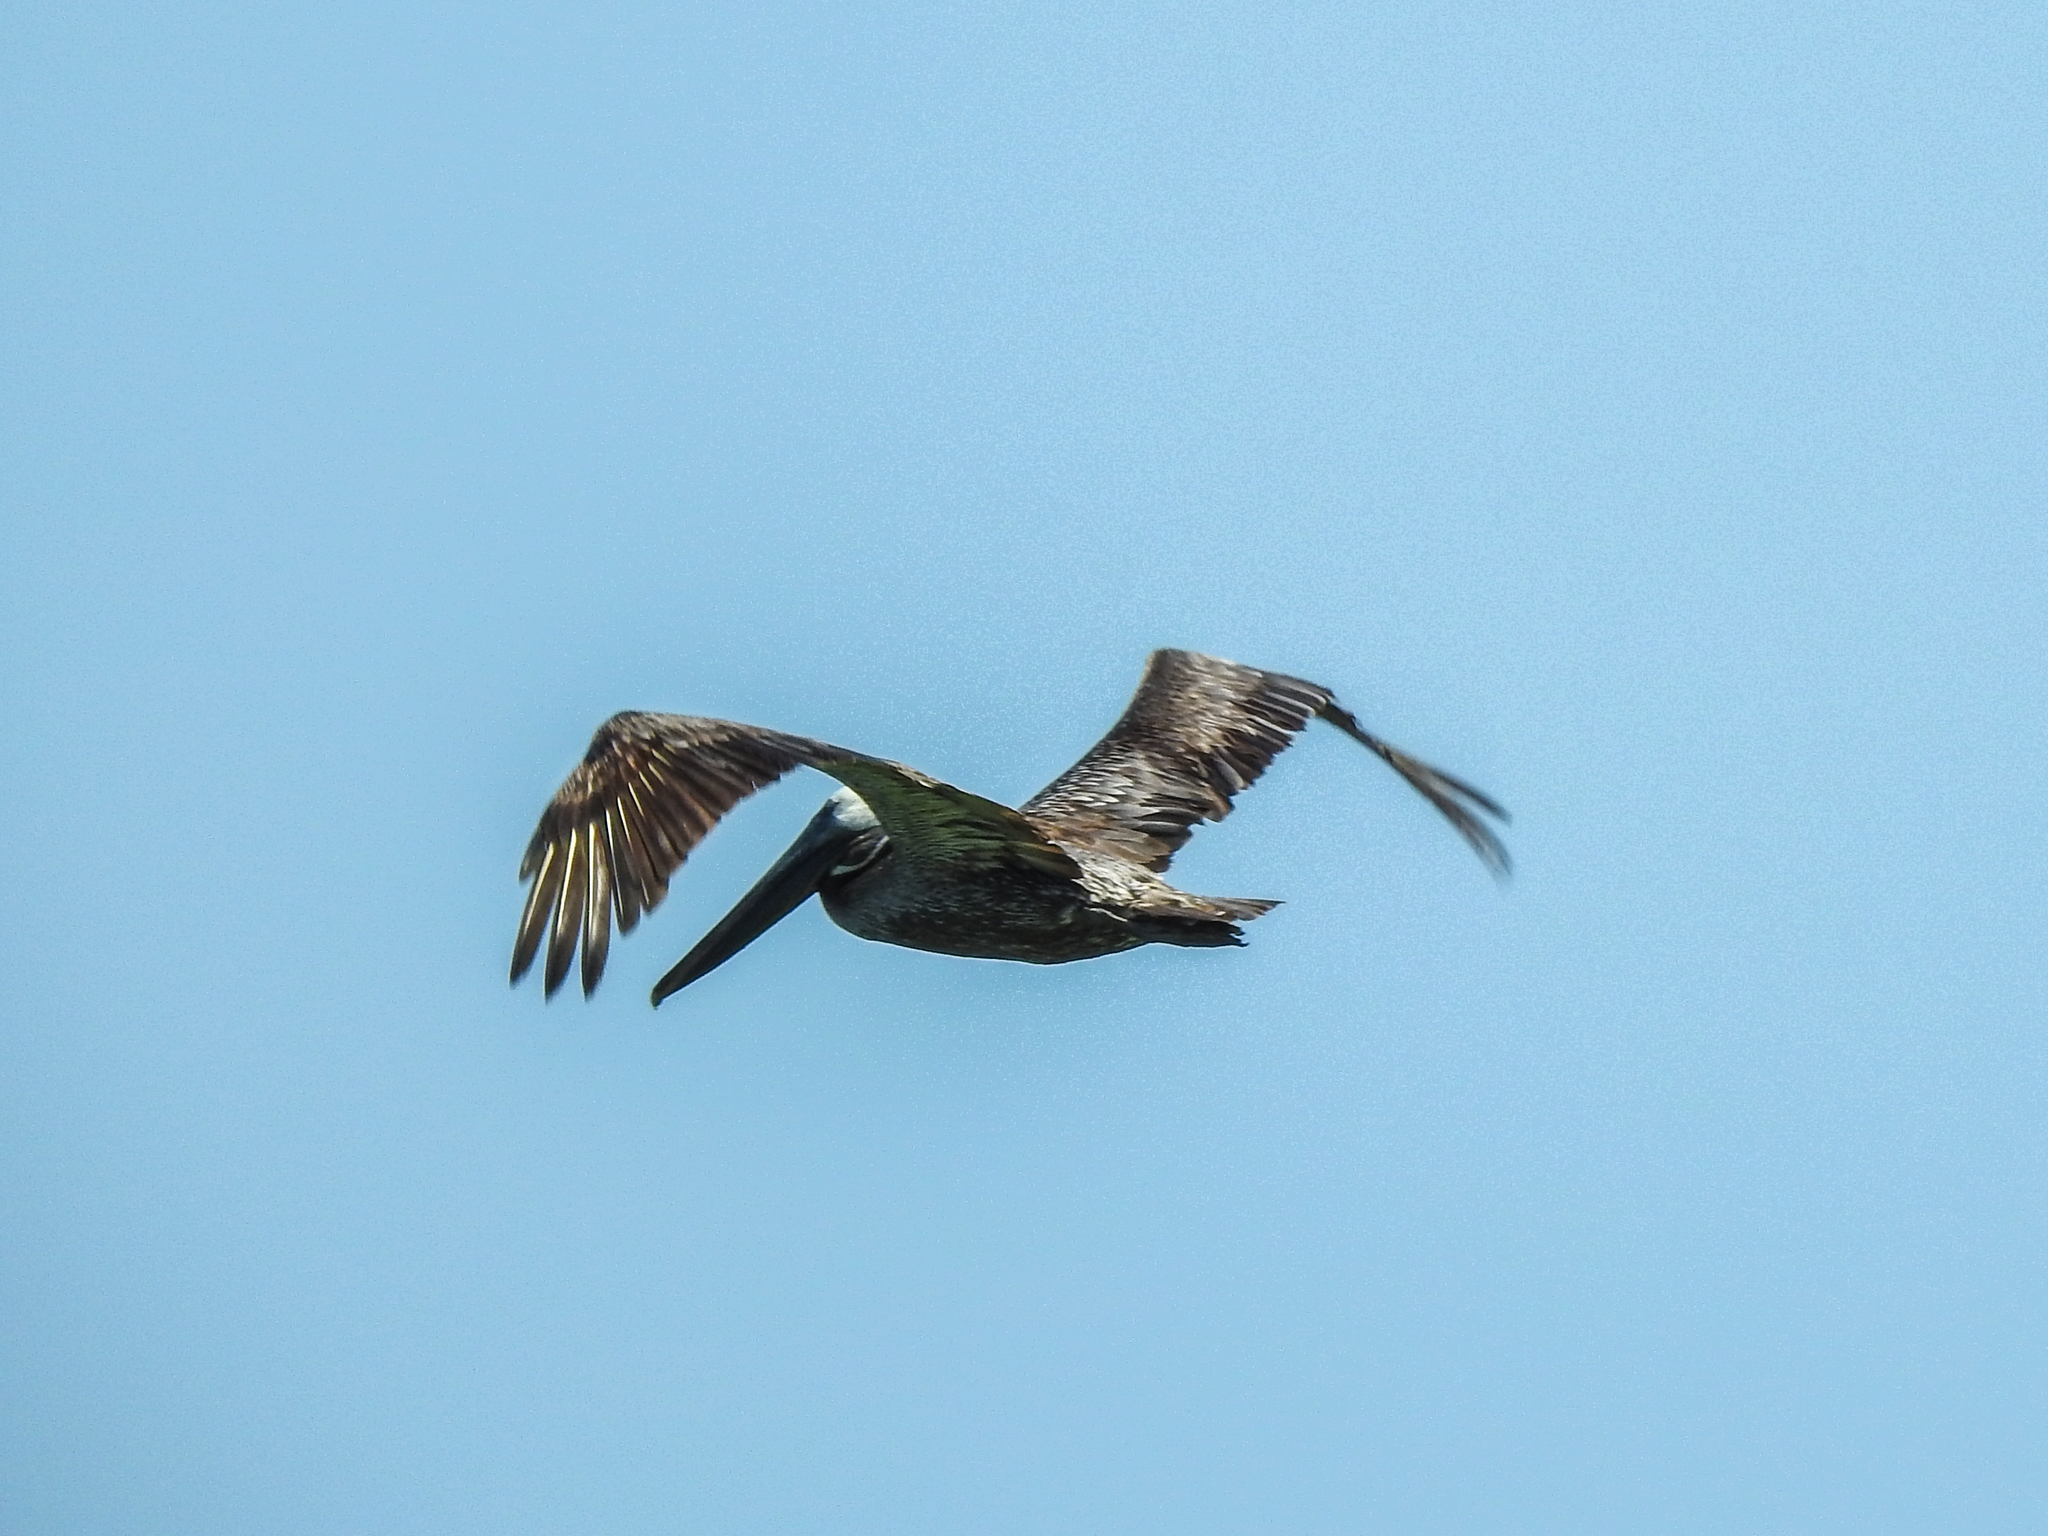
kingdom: Animalia
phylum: Chordata
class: Aves
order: Pelecaniformes
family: Pelecanidae
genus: Pelecanus
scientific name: Pelecanus occidentalis
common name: Brown pelican
